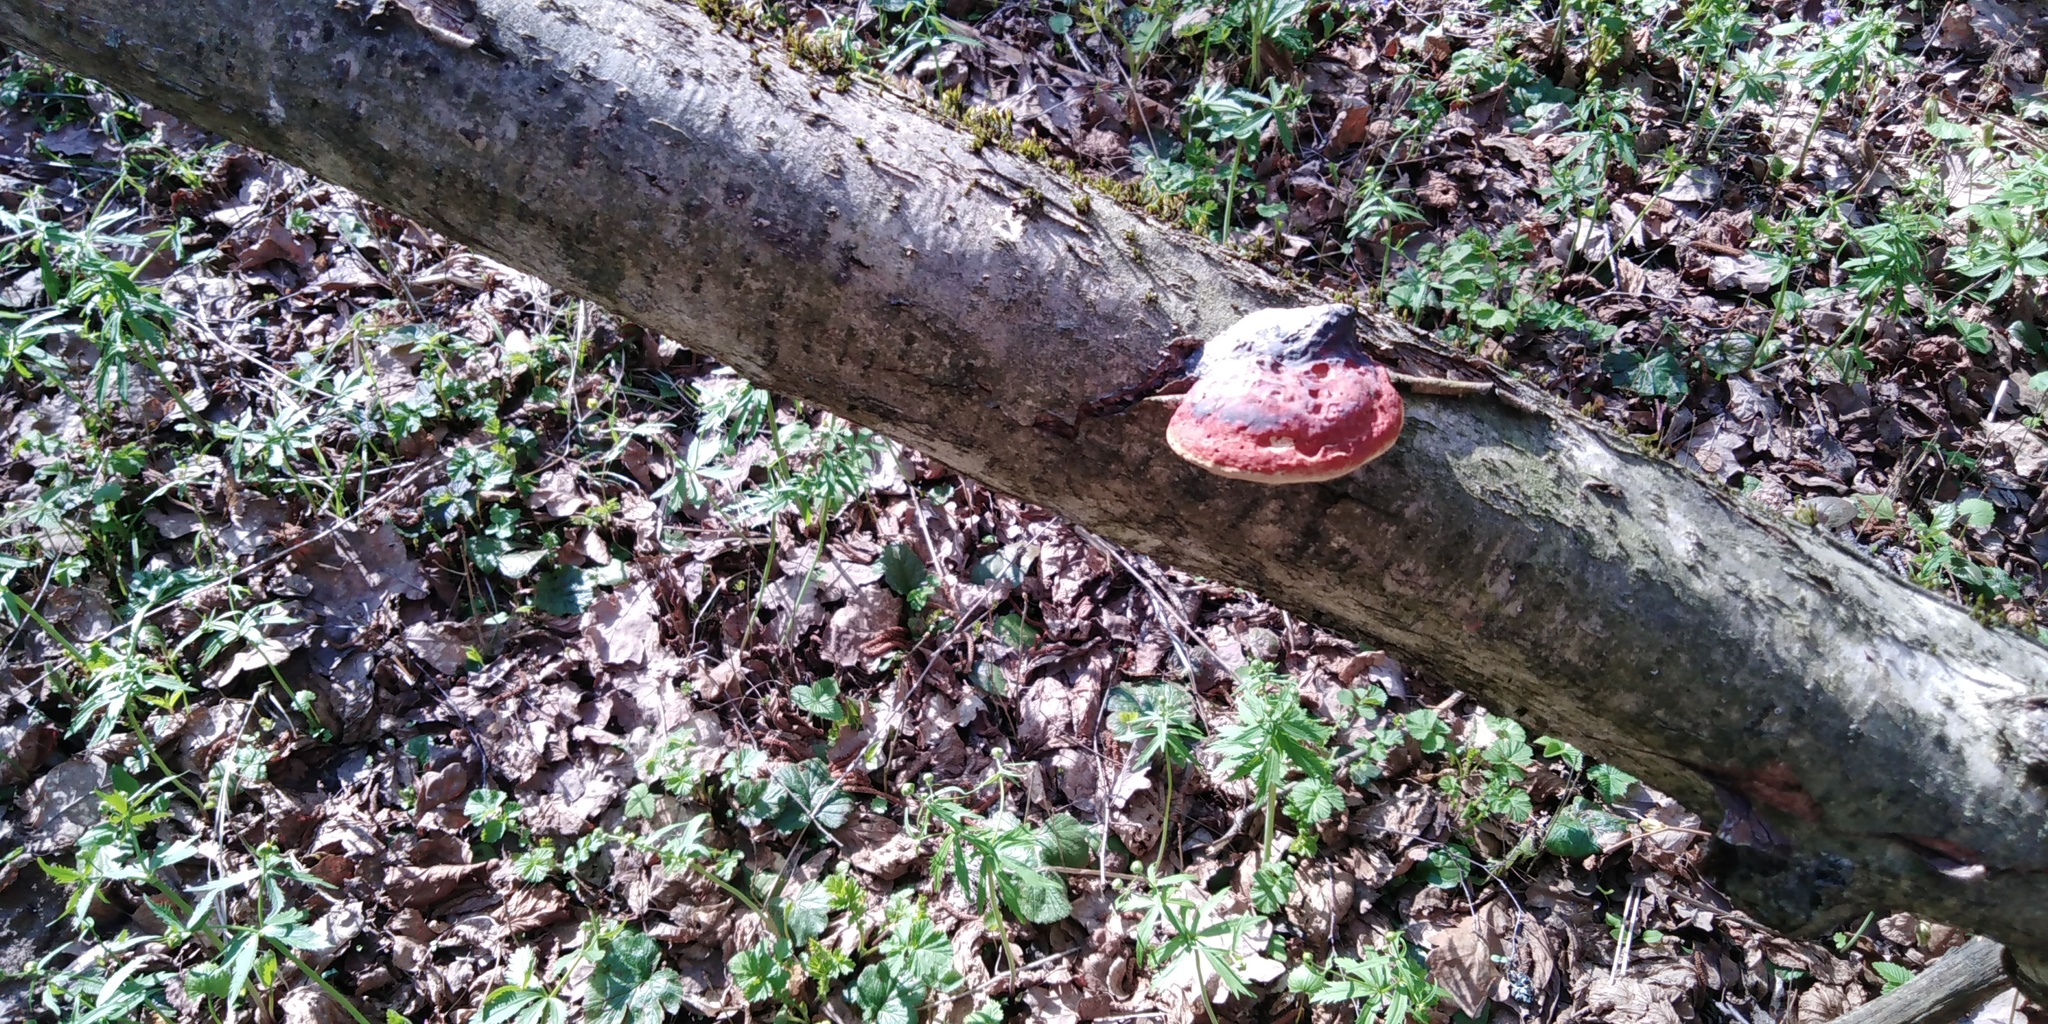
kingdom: Fungi
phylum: Basidiomycota
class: Agaricomycetes
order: Polyporales
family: Fomitopsidaceae
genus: Fomitopsis
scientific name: Fomitopsis pinicola
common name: Red-belted bracket
